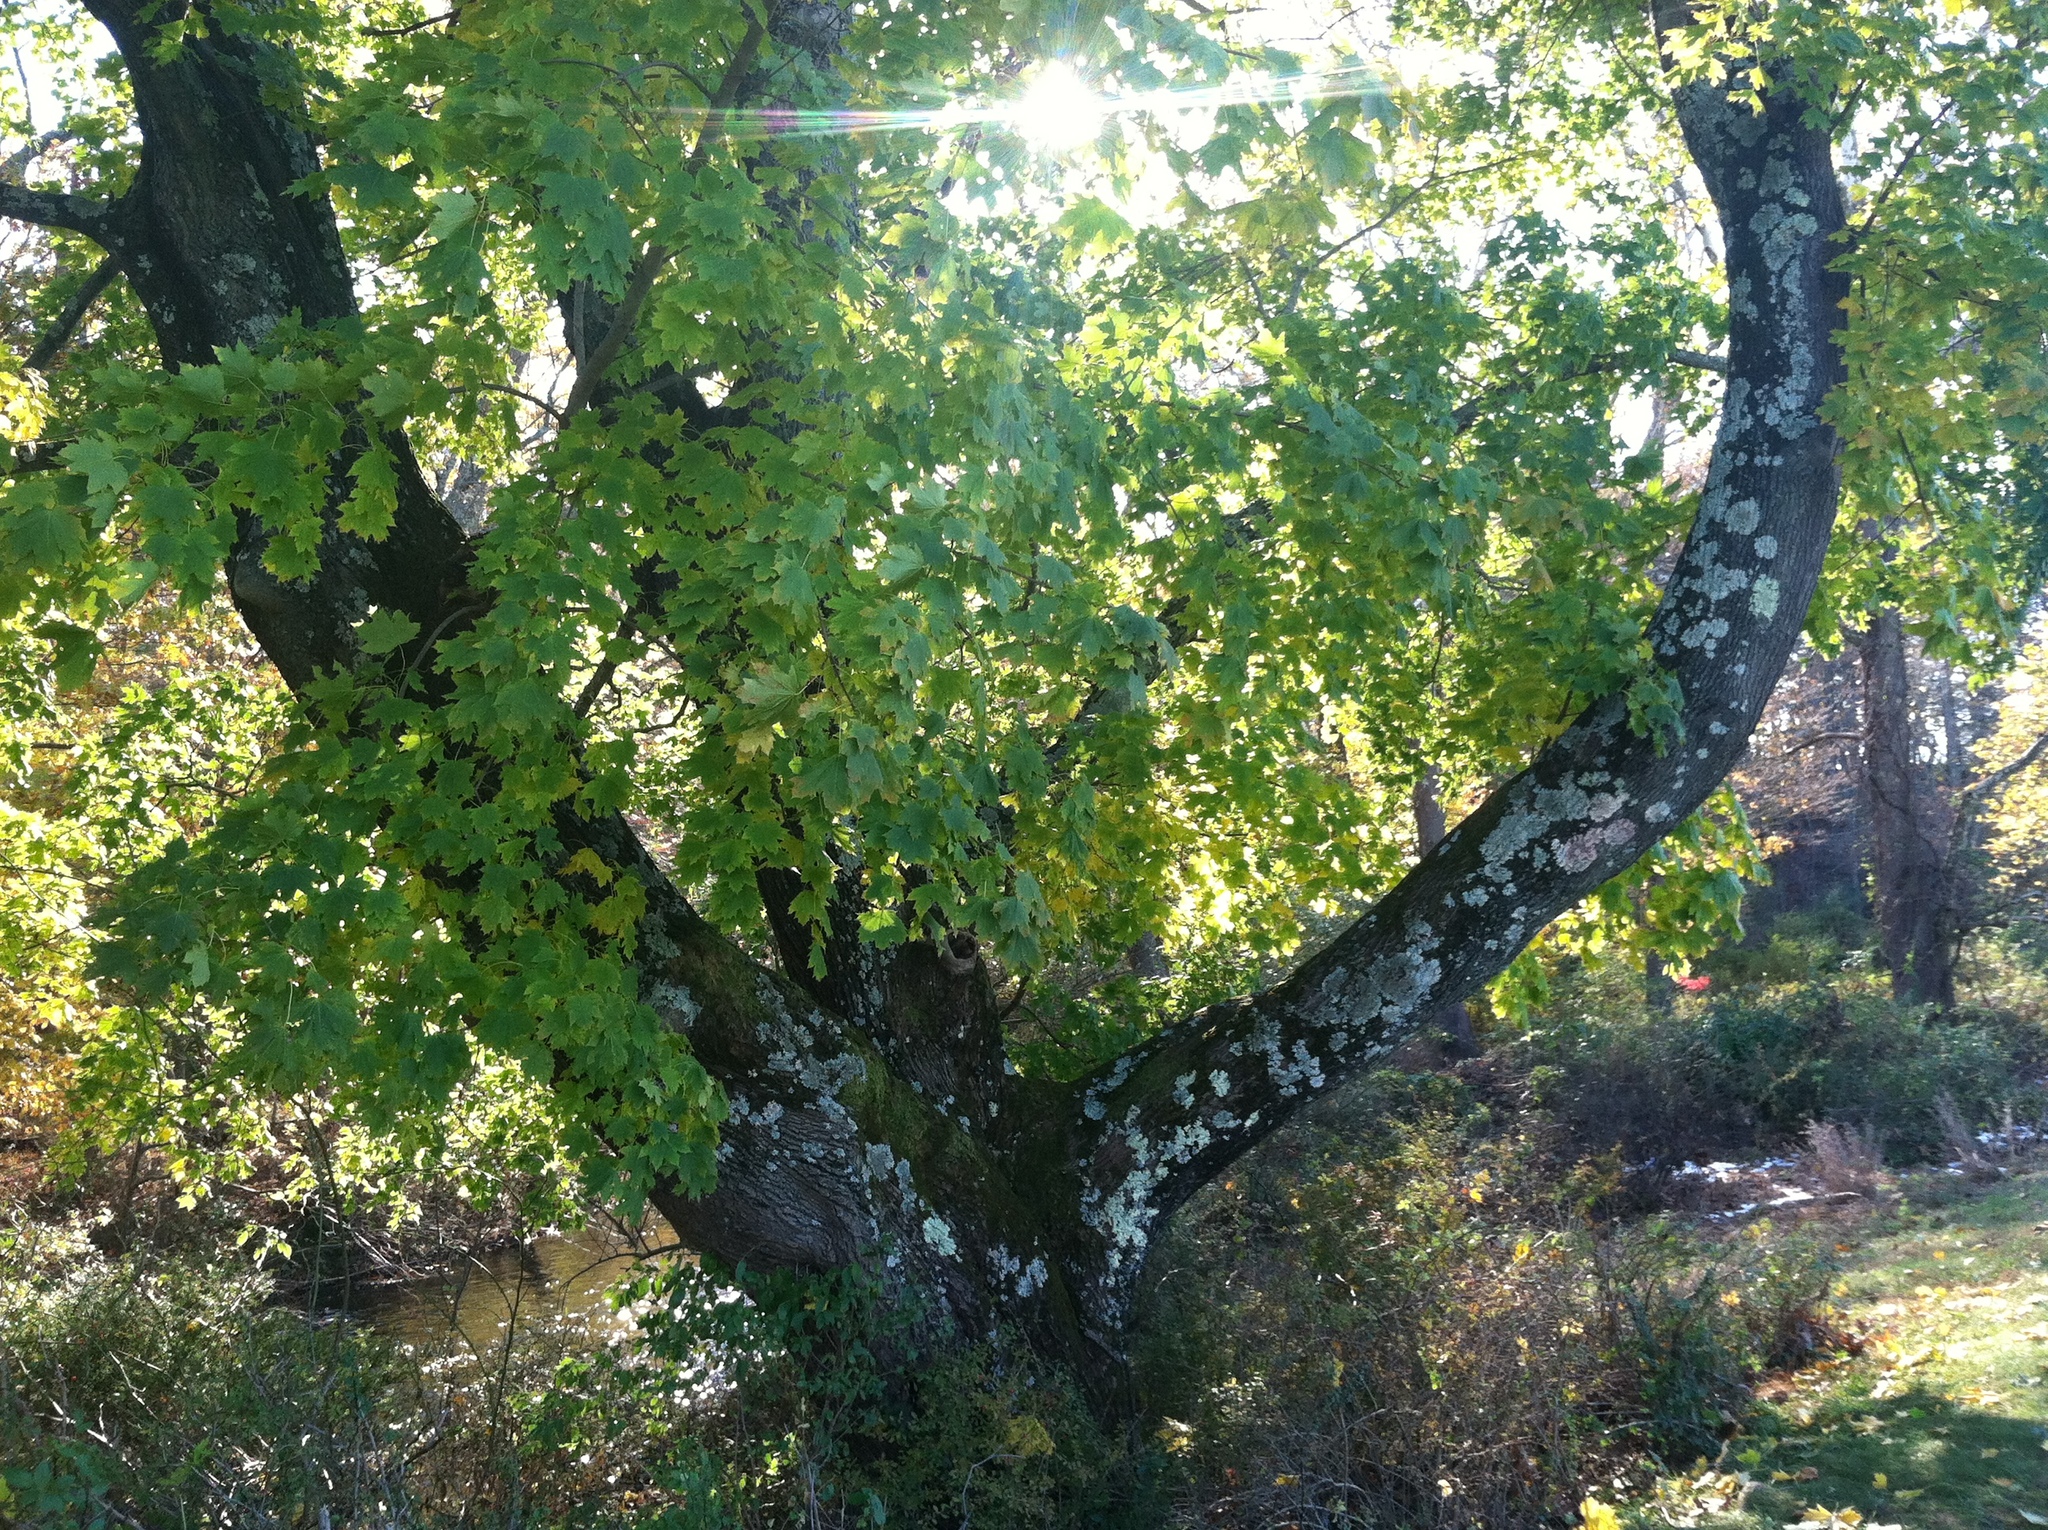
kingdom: Plantae
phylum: Tracheophyta
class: Magnoliopsida
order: Sapindales
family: Sapindaceae
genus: Acer
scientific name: Acer platanoides
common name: Norway maple
